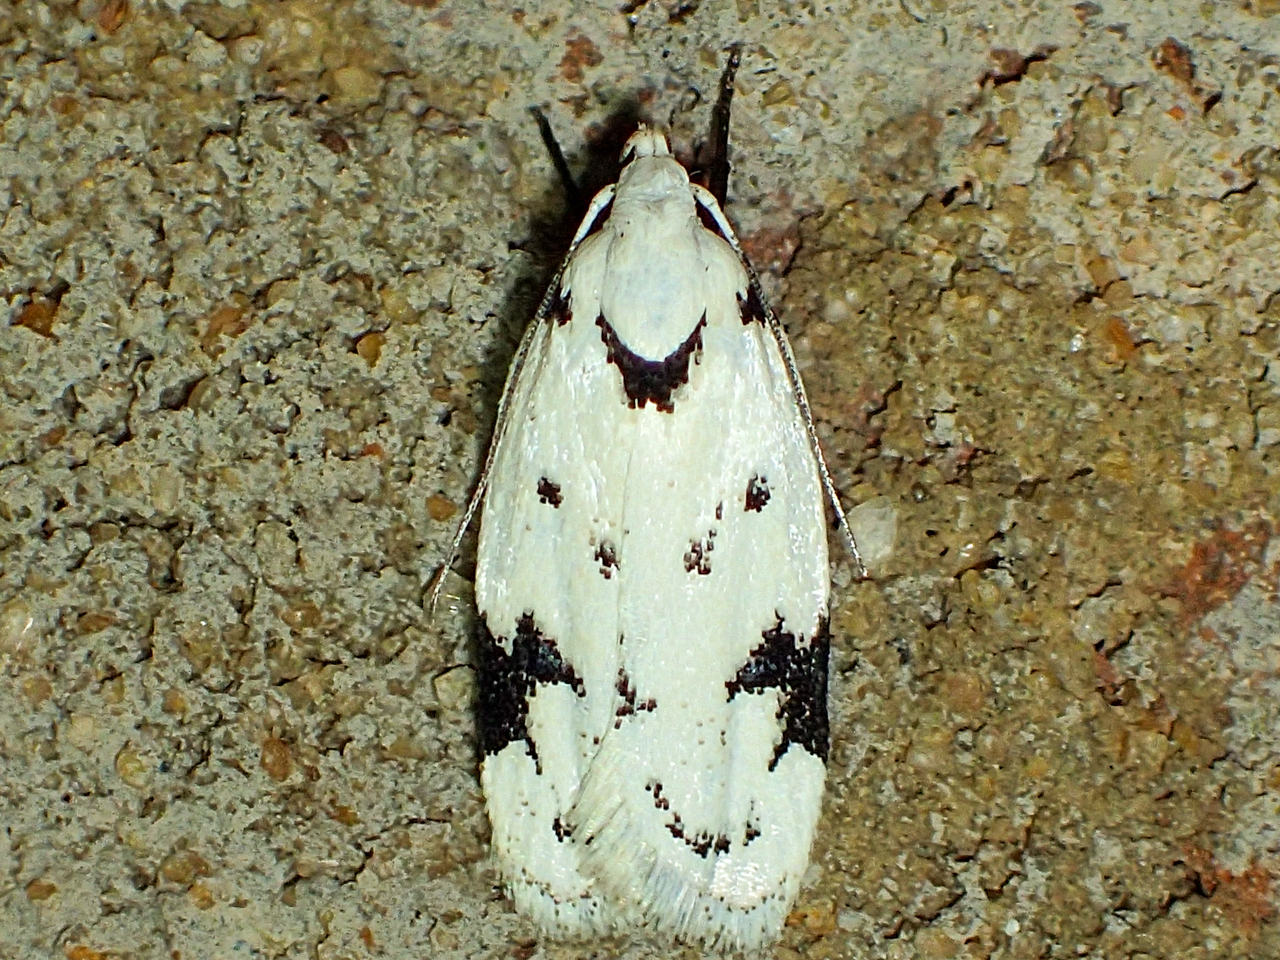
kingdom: Animalia
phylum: Arthropoda
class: Insecta
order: Lepidoptera
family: Oecophoridae
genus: Inga
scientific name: Inga sparsiciliella
